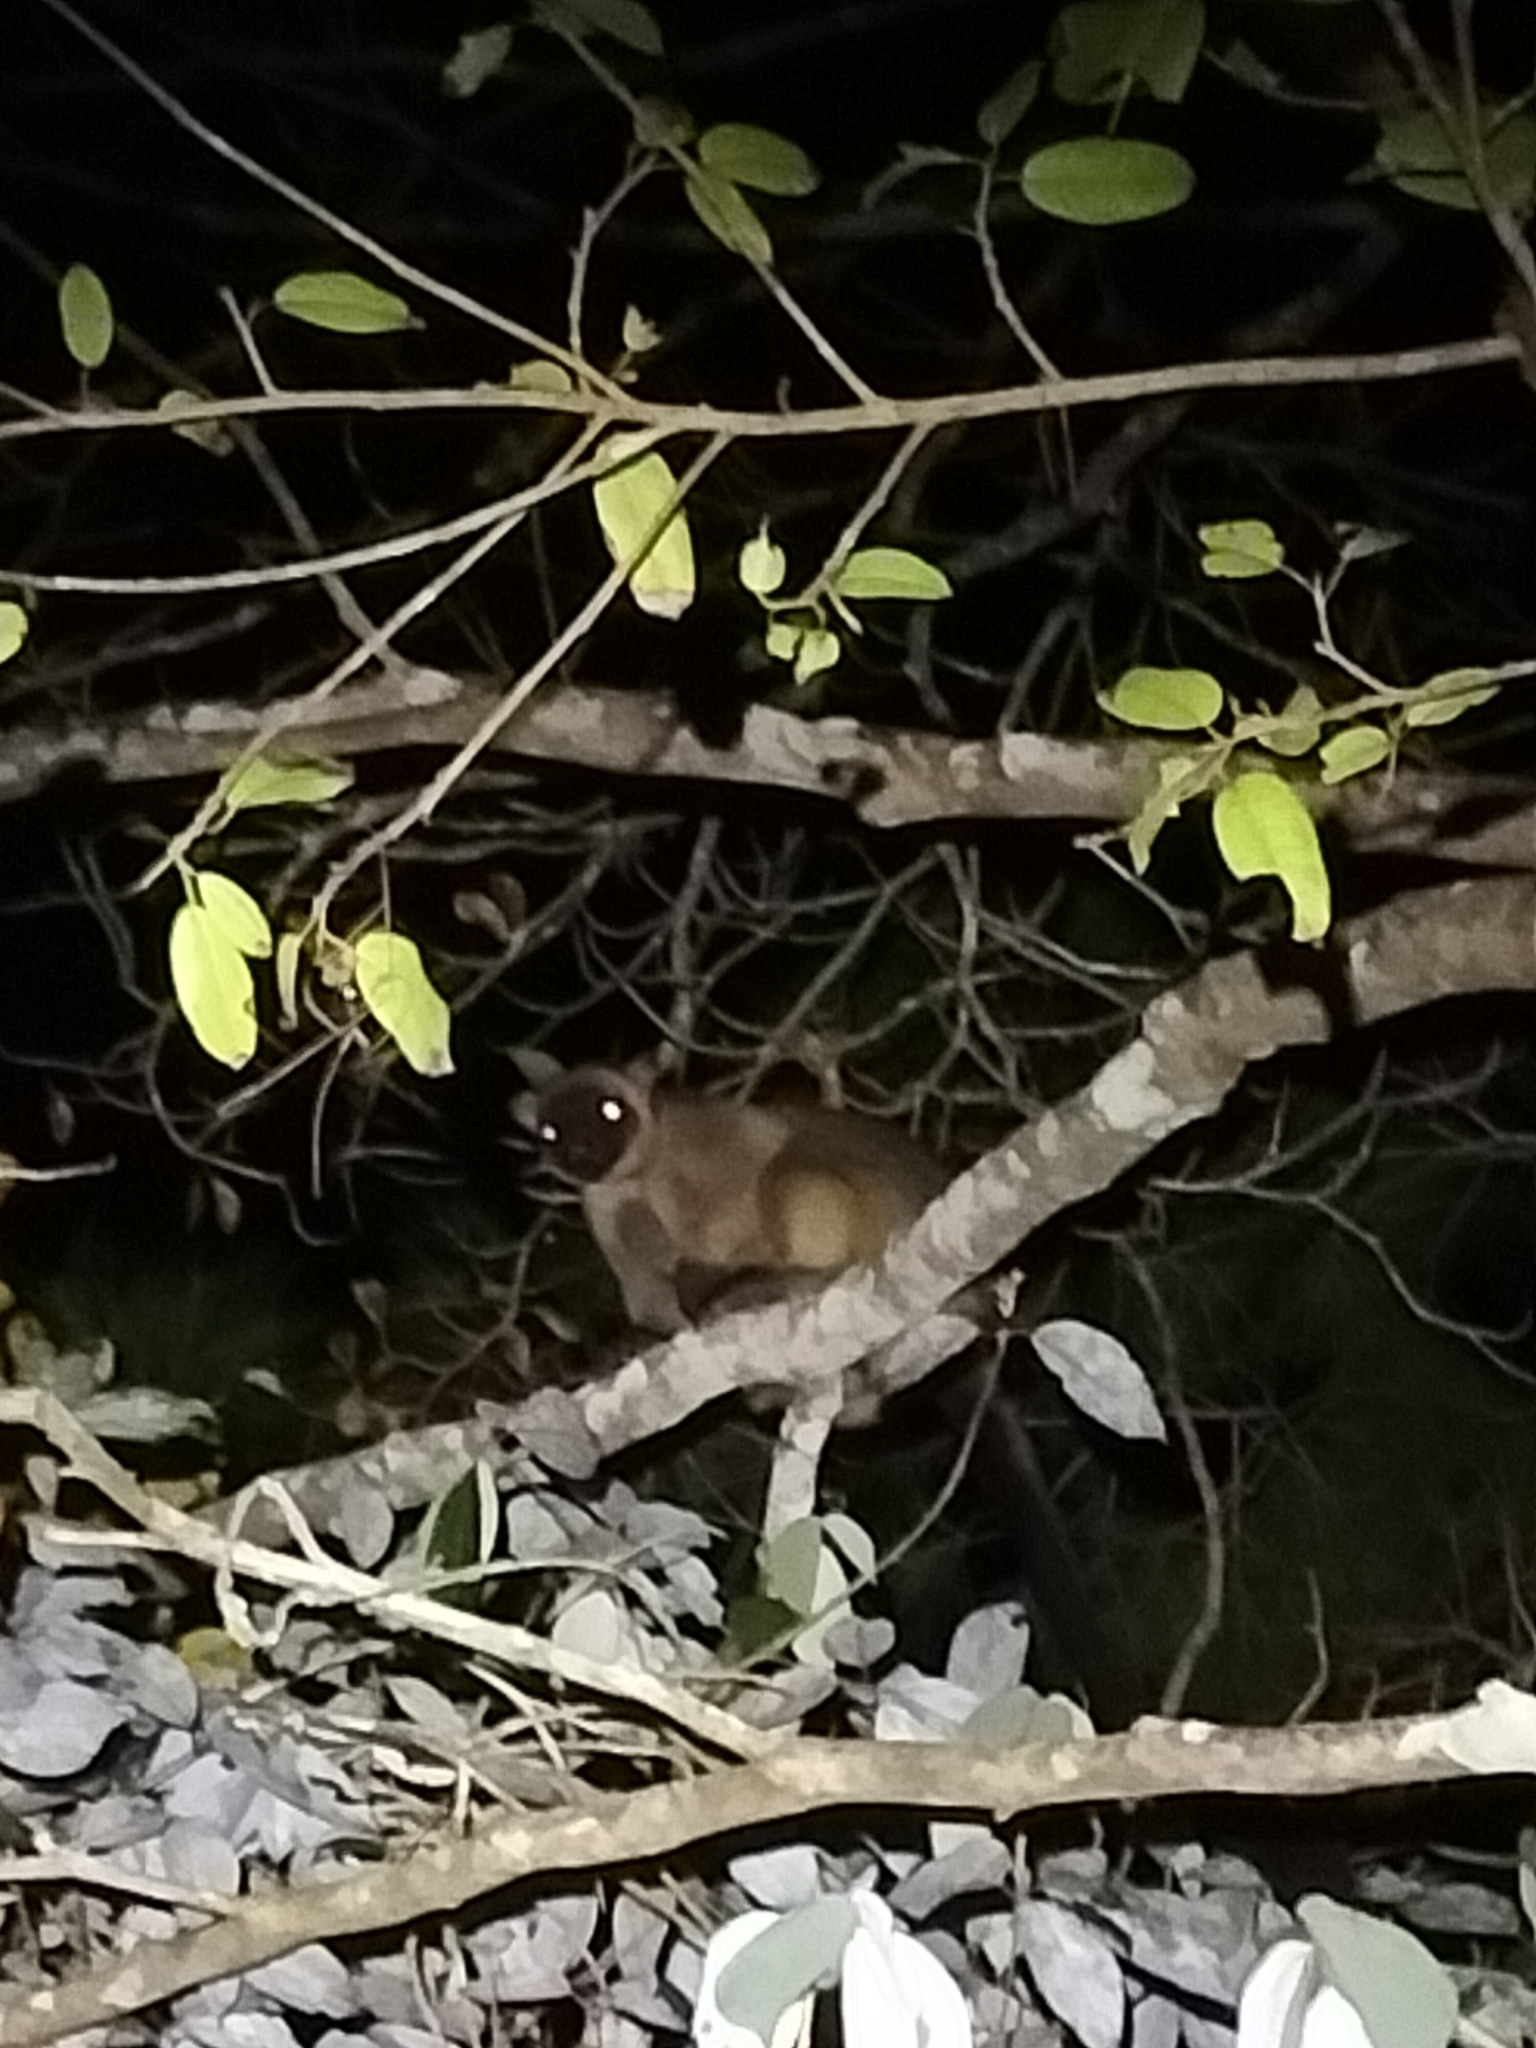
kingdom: Animalia
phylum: Chordata
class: Mammalia
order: Diprotodontia
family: Macropodidae
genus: Dendrolagus
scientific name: Dendrolagus lumholtzi
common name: Lumholtz's tree kangaroo
